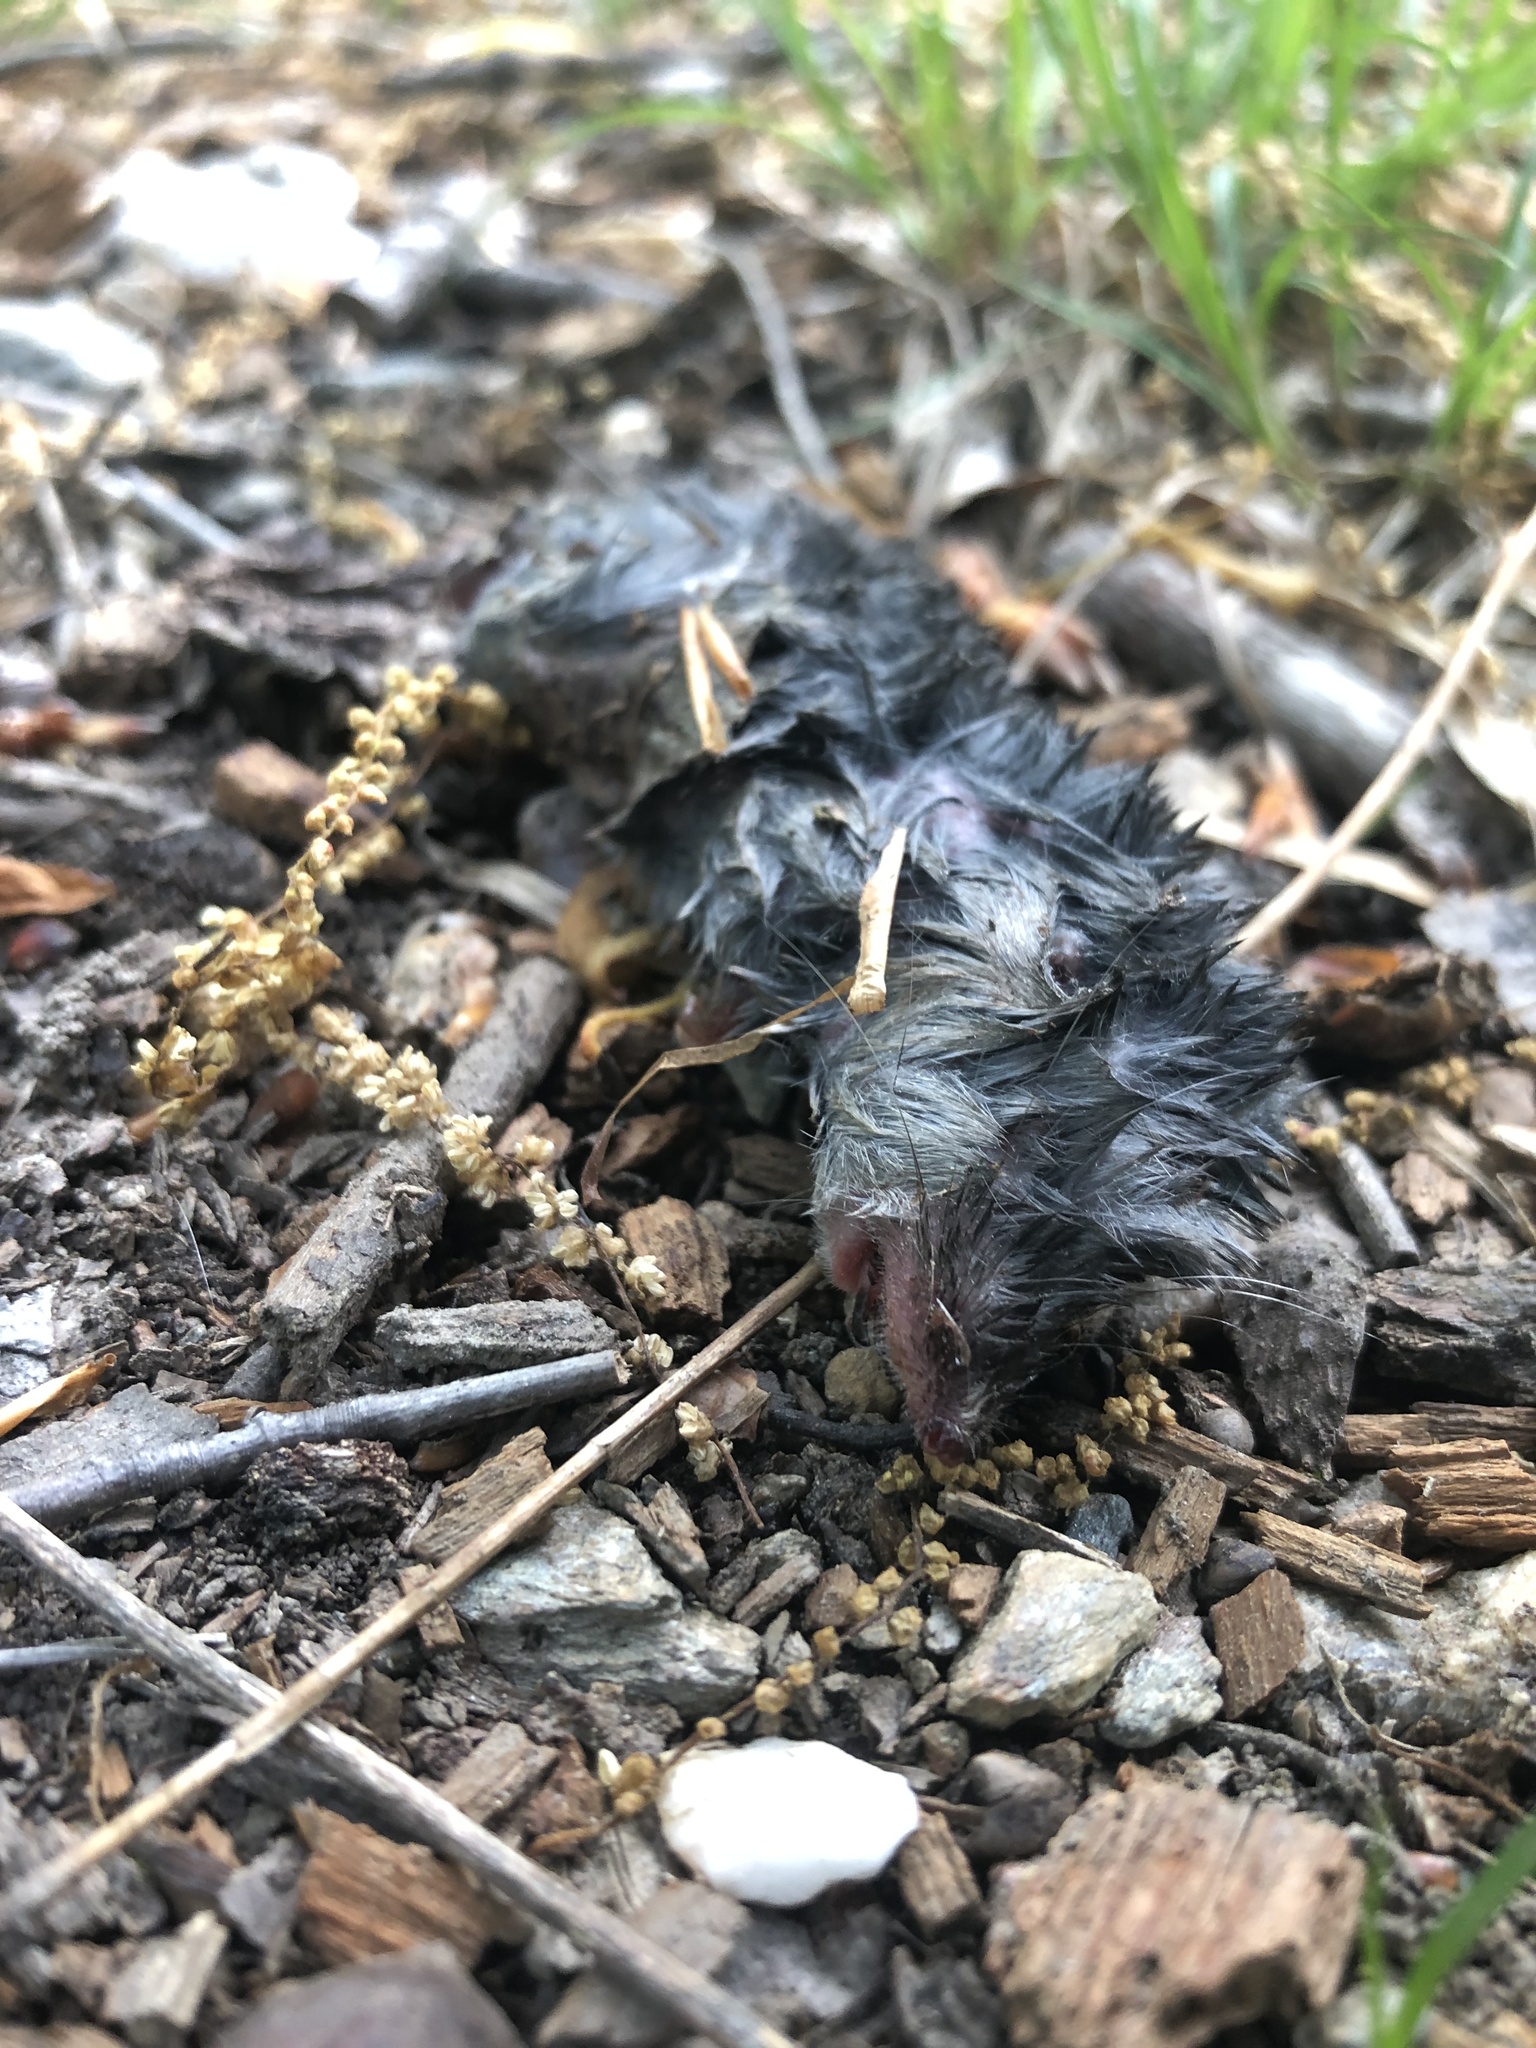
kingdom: Animalia
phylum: Chordata
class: Mammalia
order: Soricomorpha
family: Soricidae
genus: Blarina
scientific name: Blarina brevicauda
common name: Northern short-tailed shrew
